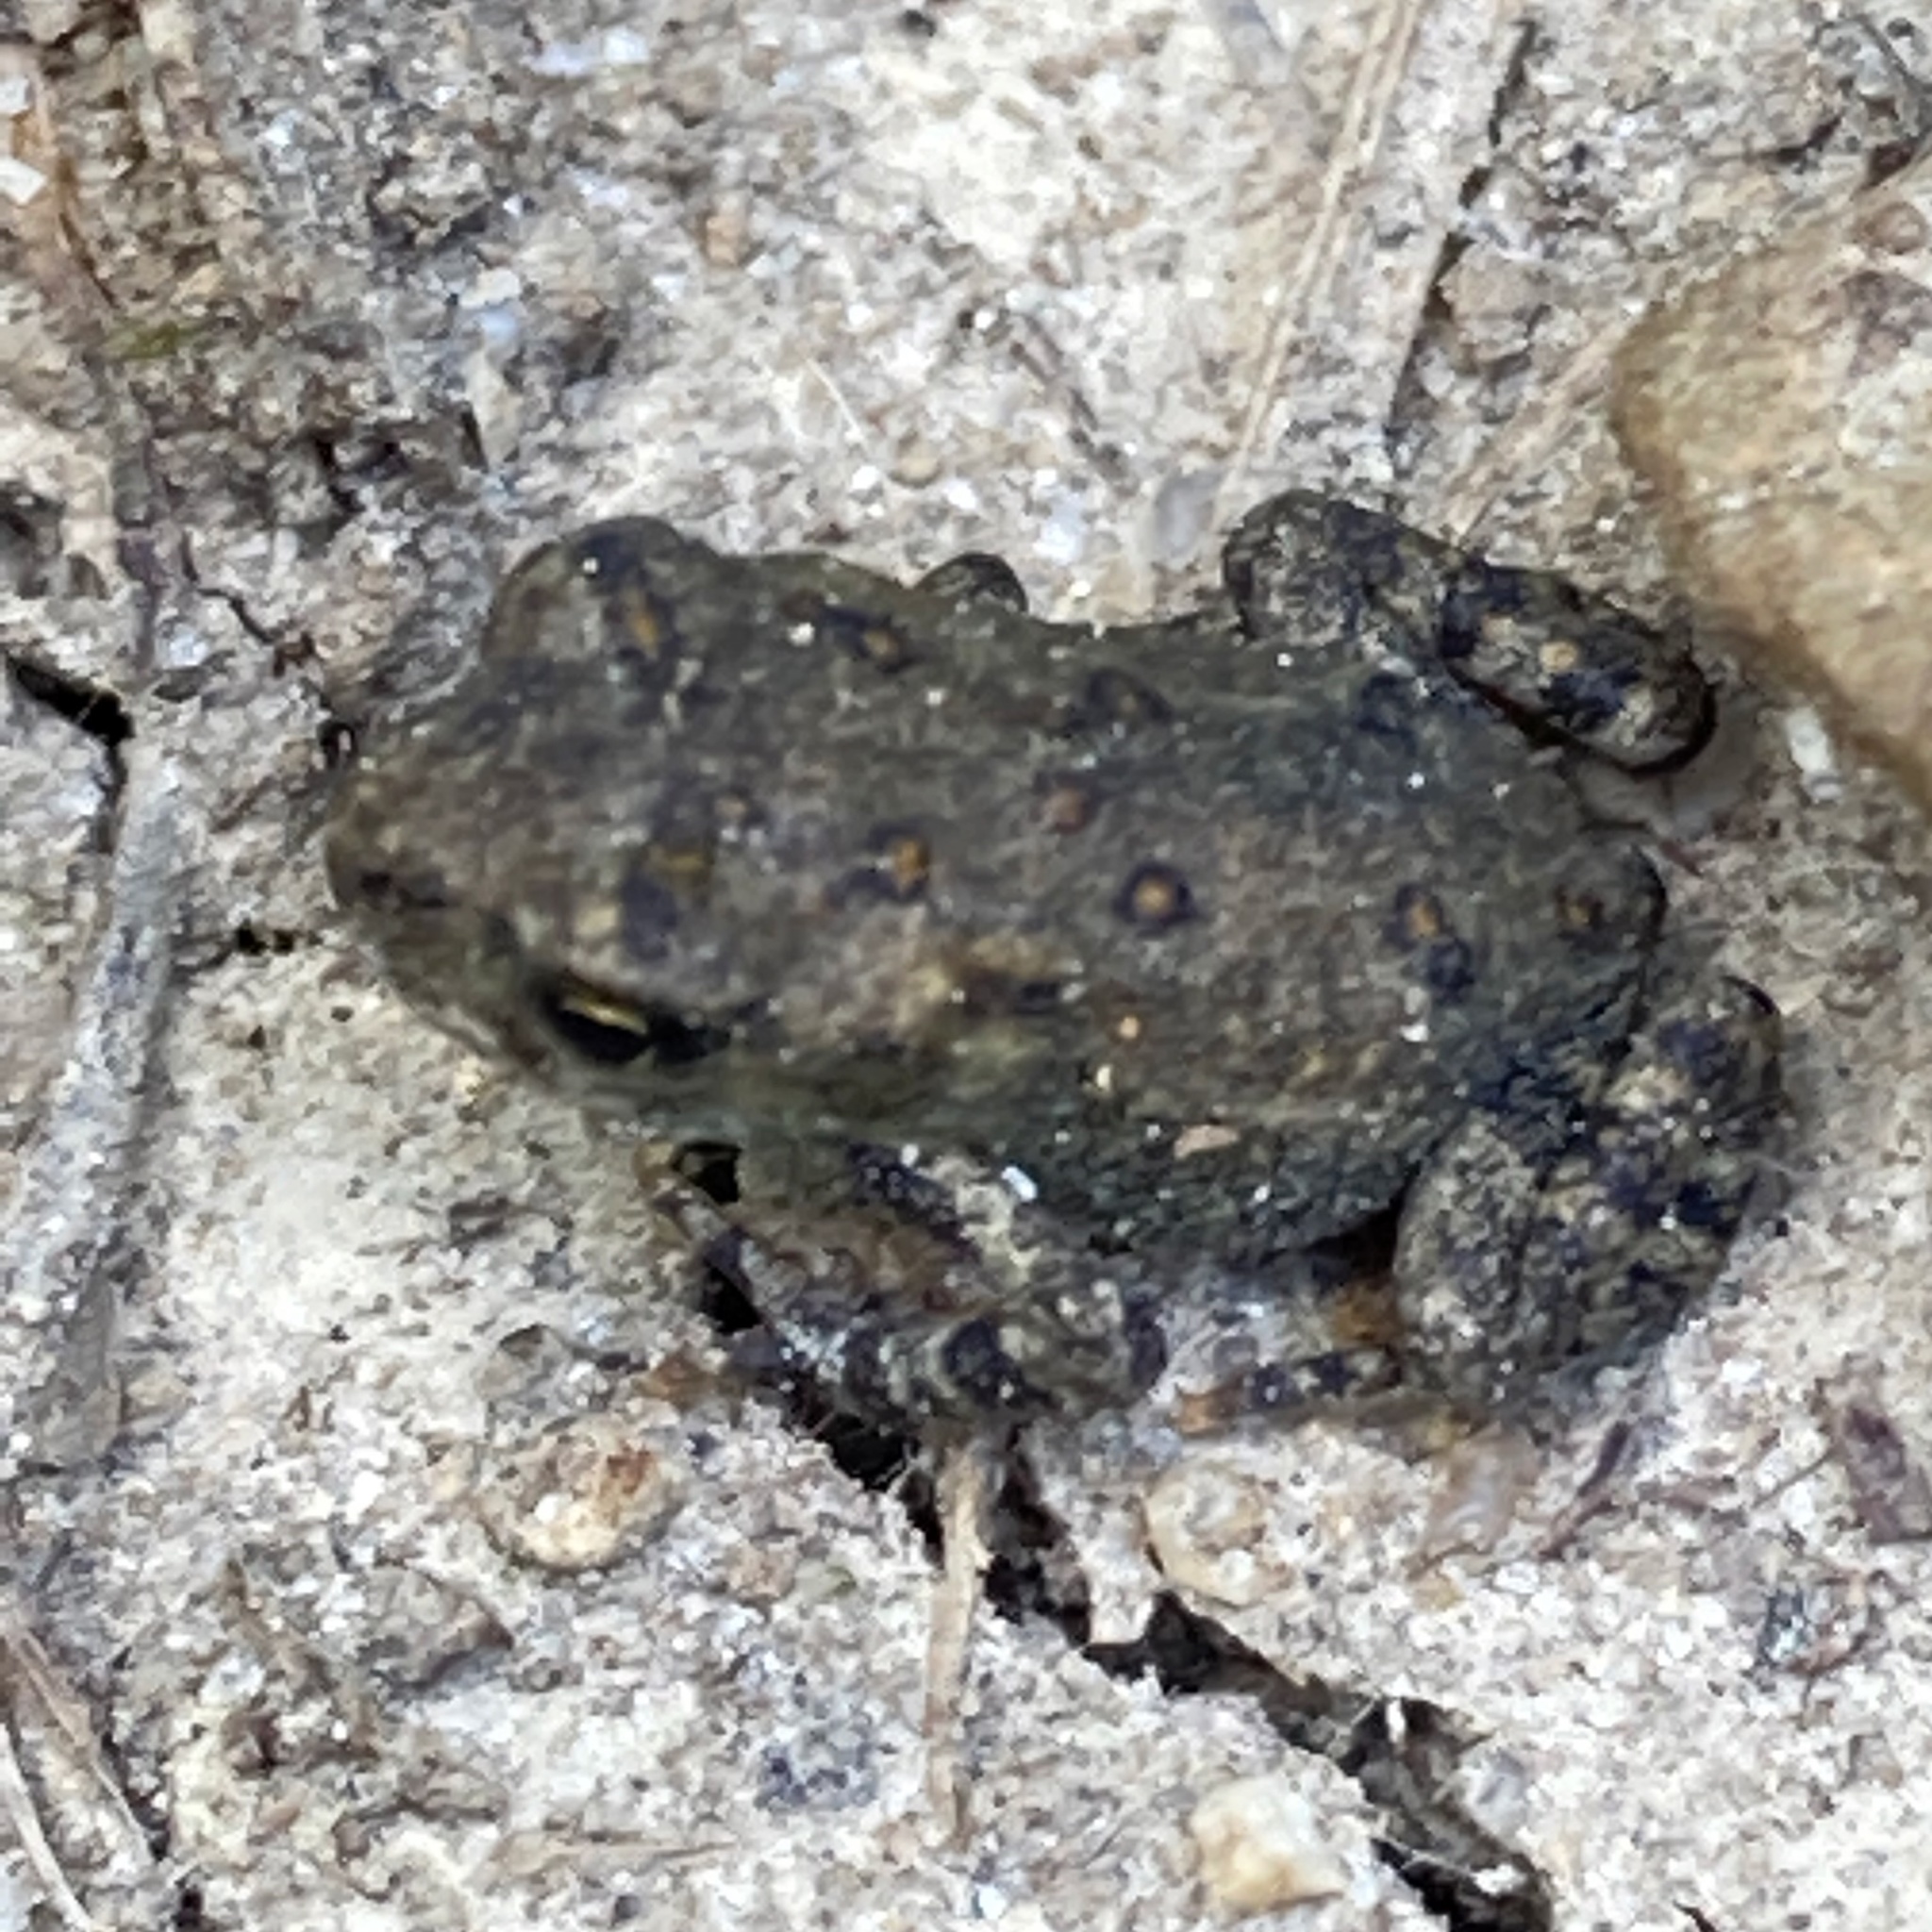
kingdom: Animalia
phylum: Chordata
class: Amphibia
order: Anura
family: Bufonidae
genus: Anaxyrus
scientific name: Anaxyrus americanus
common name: American toad
